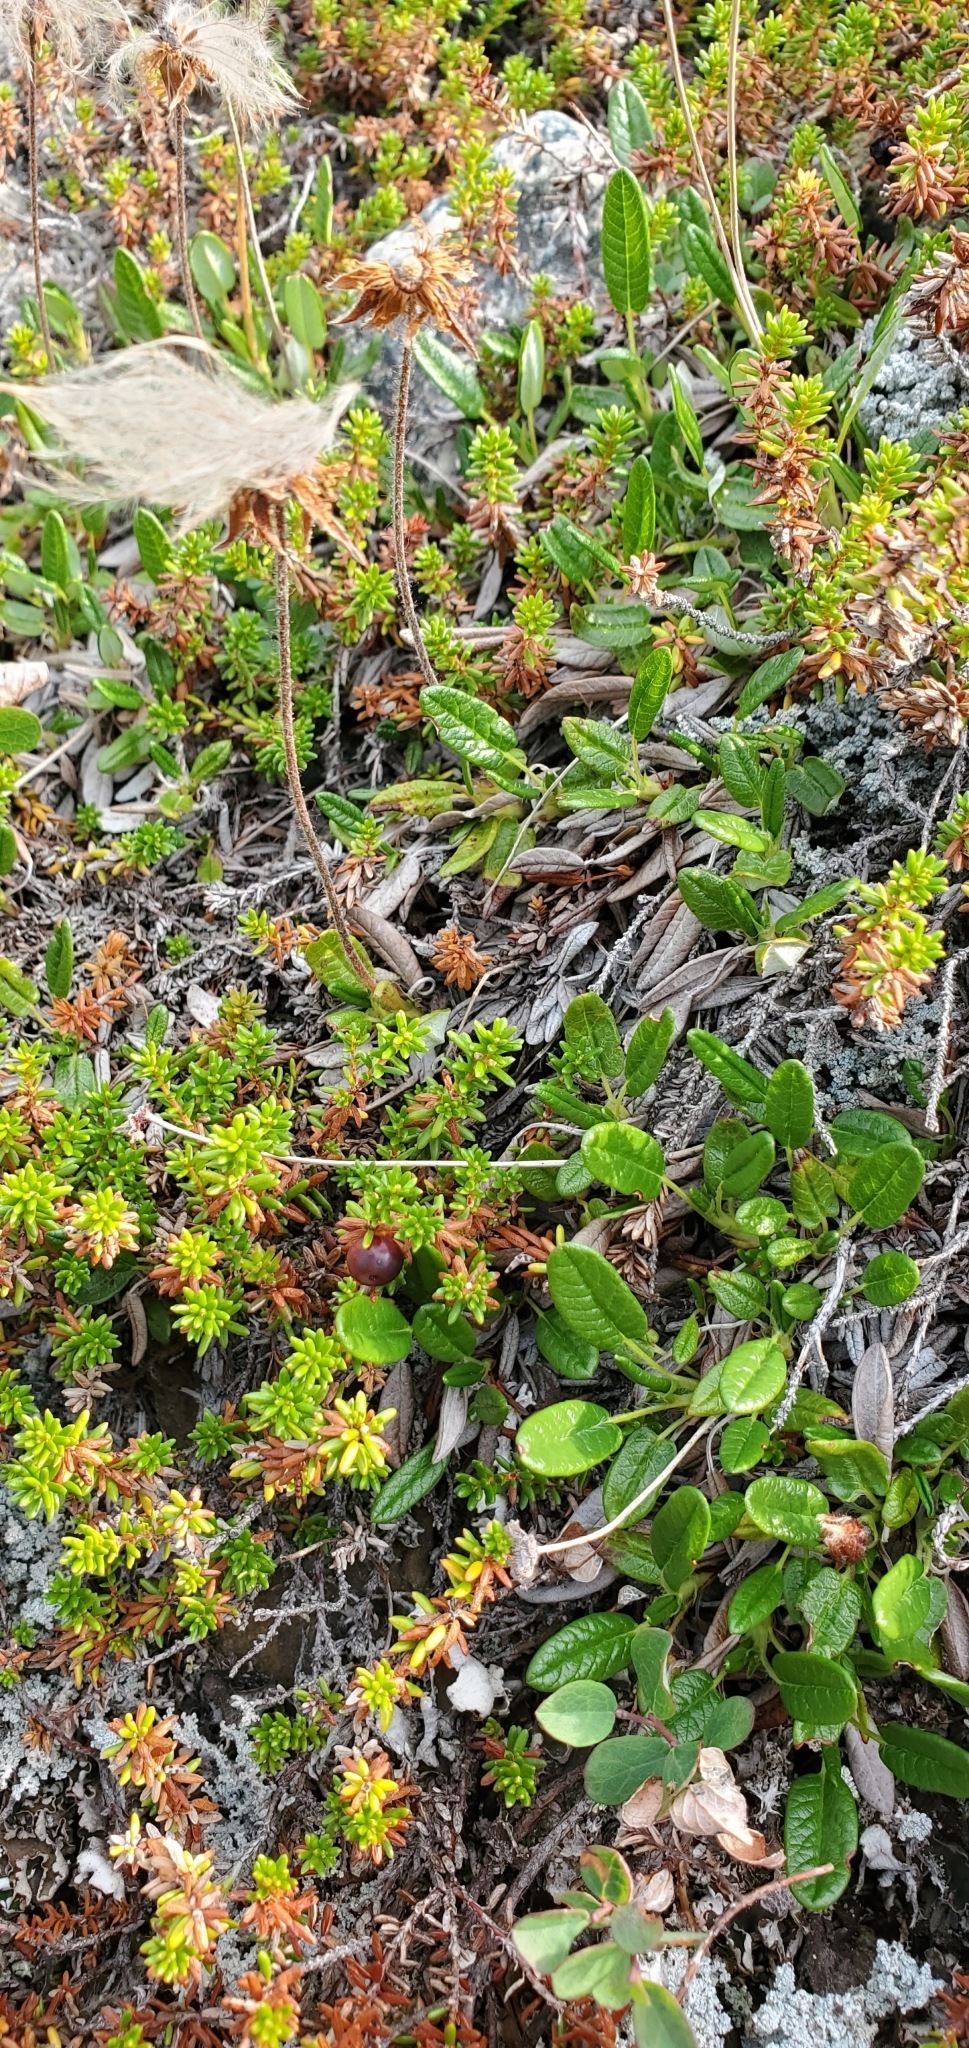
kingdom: Plantae
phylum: Tracheophyta
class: Magnoliopsida
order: Rosales
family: Rosaceae
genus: Dryas
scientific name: Dryas drummondii
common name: Drummond's dryad
